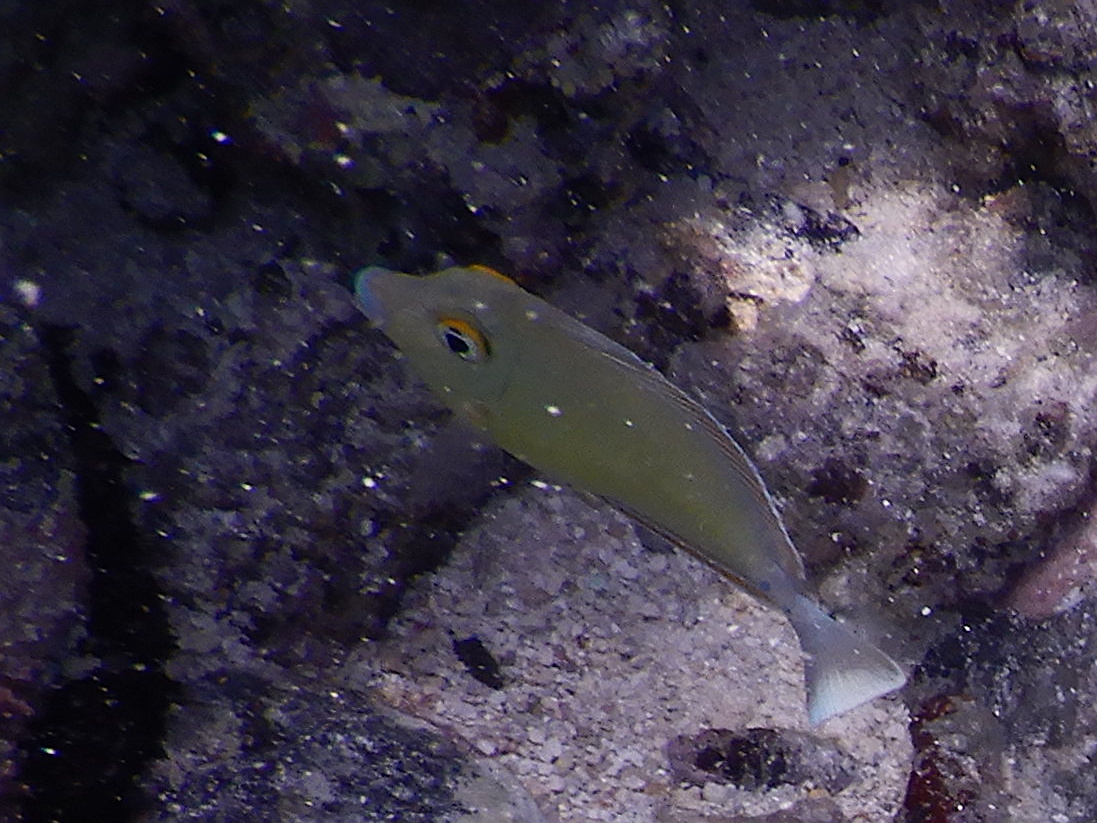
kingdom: Animalia
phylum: Chordata
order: Perciformes
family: Acanthuridae
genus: Naso
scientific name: Naso unicornis
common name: Bluespine unicornfish
